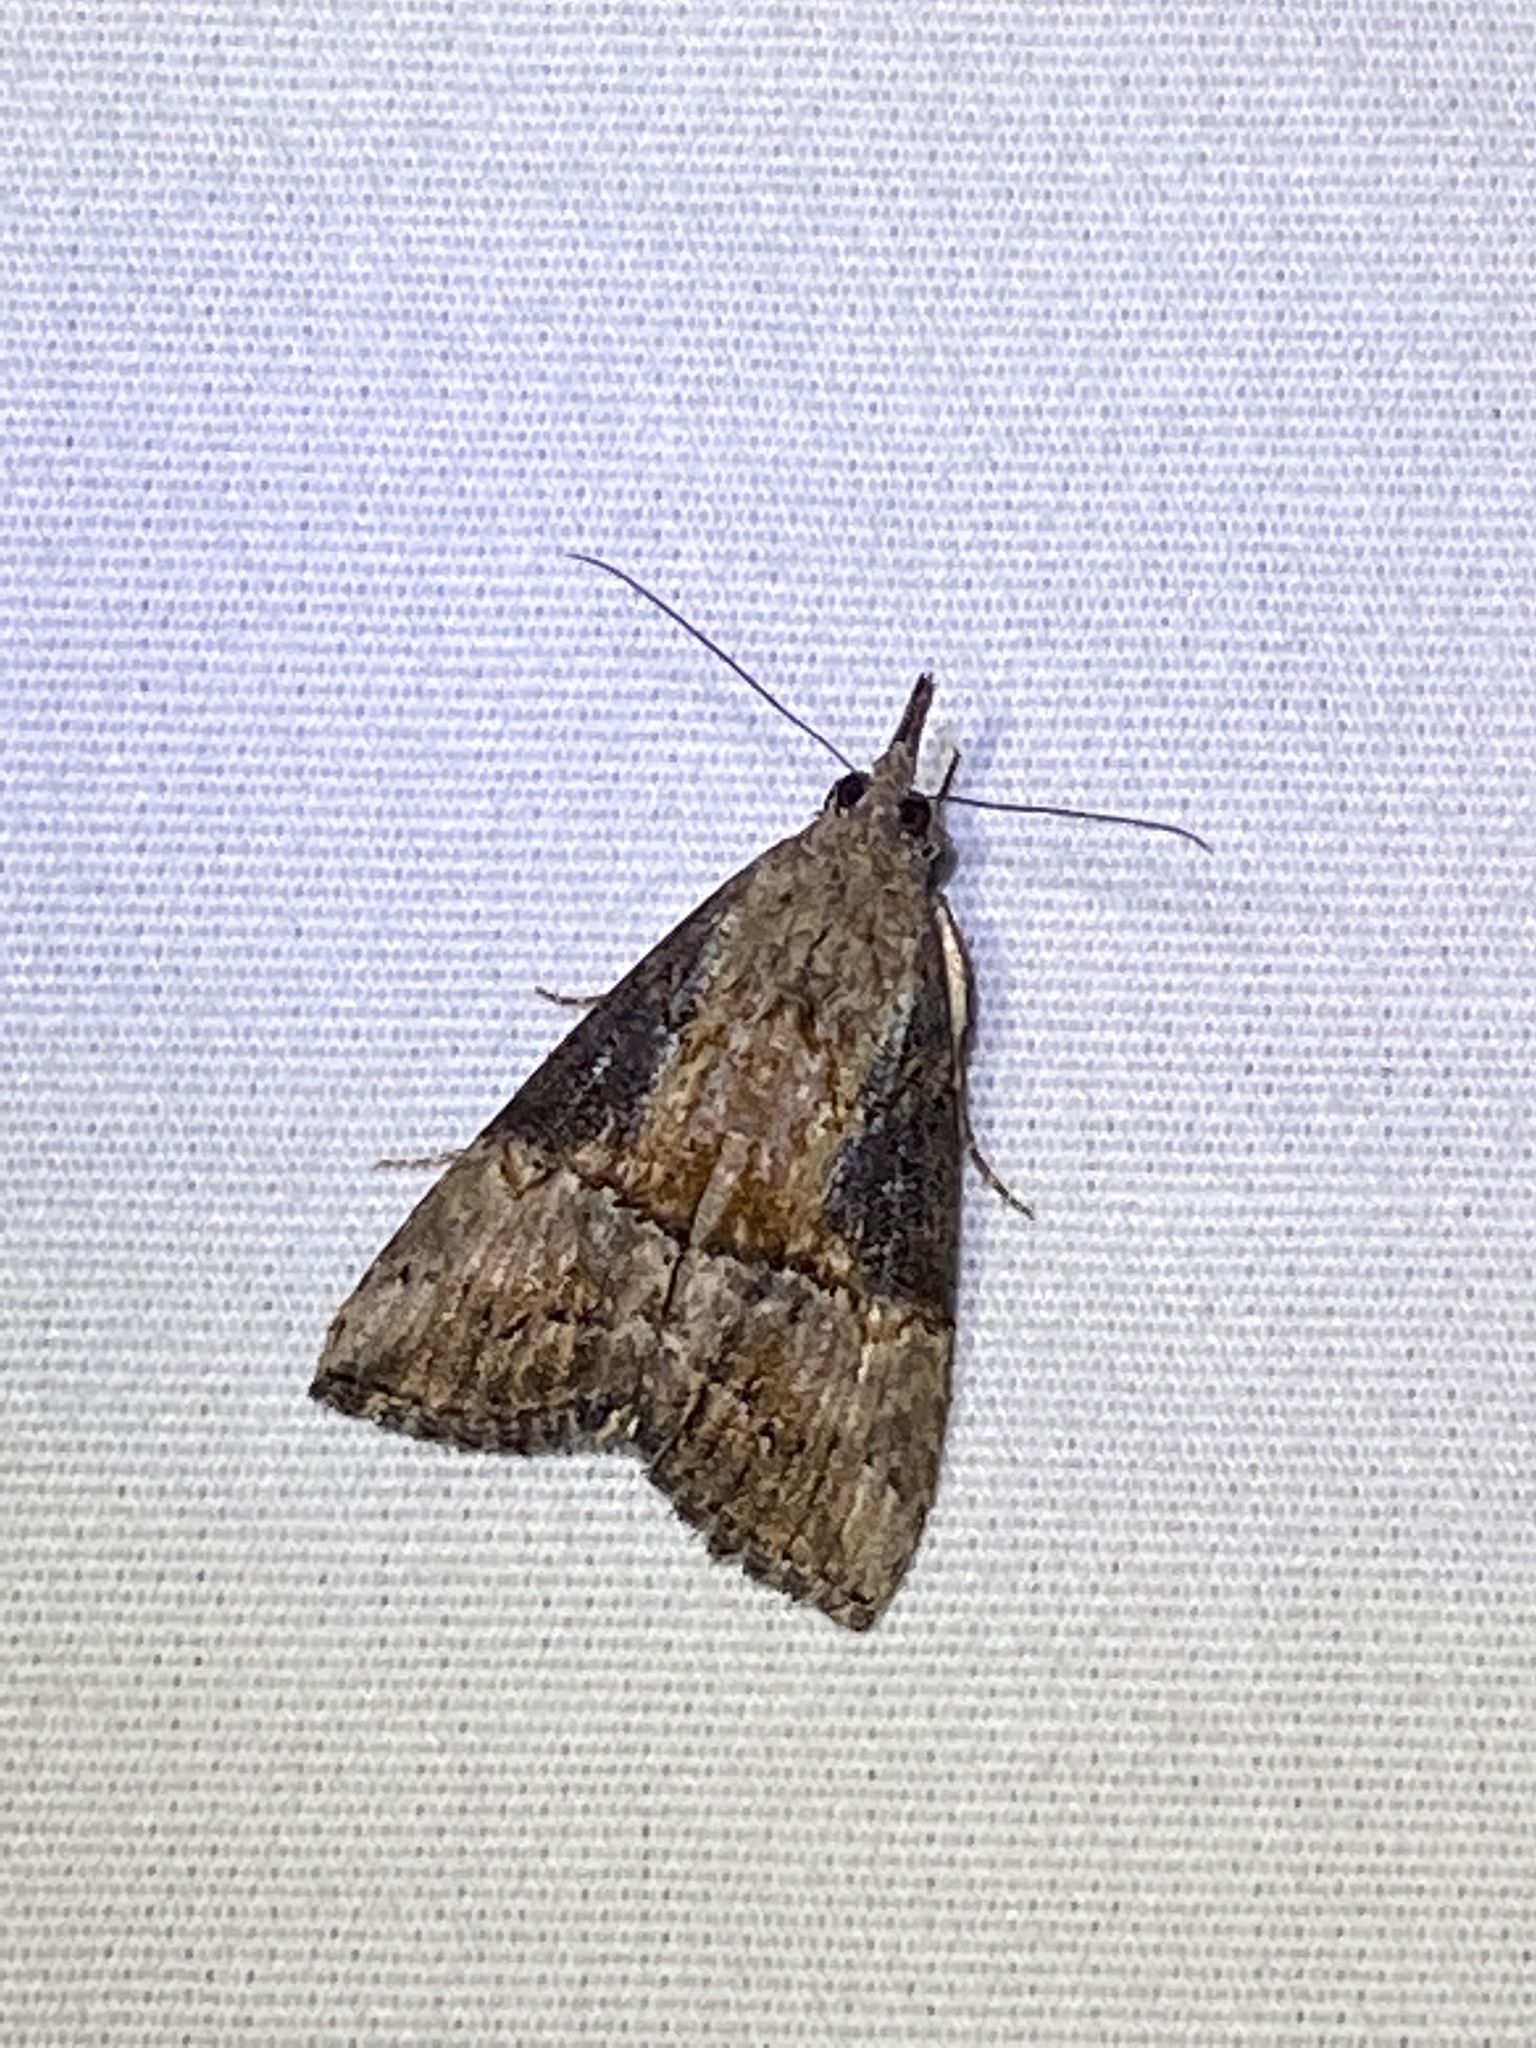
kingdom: Animalia
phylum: Arthropoda
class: Insecta
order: Lepidoptera
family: Erebidae
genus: Hypena
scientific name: Hypena scabra
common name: Green cloverworm
